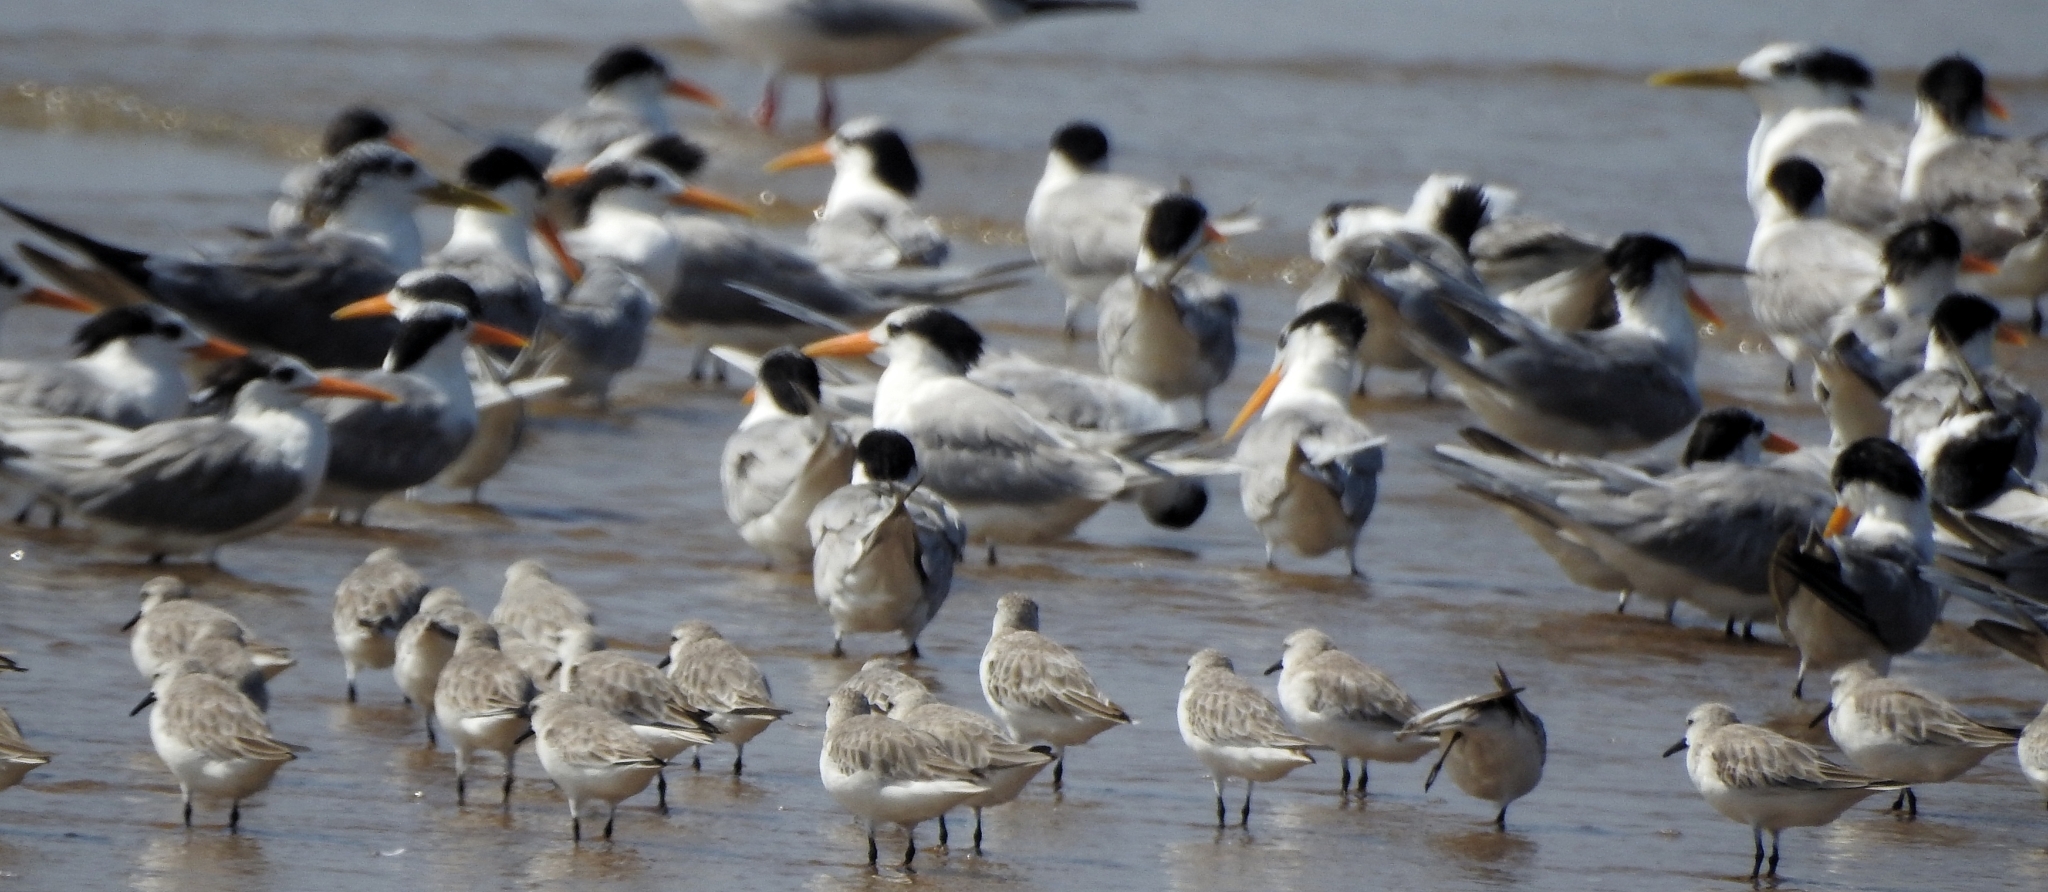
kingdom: Animalia
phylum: Chordata
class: Aves
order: Charadriiformes
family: Scolopacidae
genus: Calidris
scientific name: Calidris alba
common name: Sanderling
